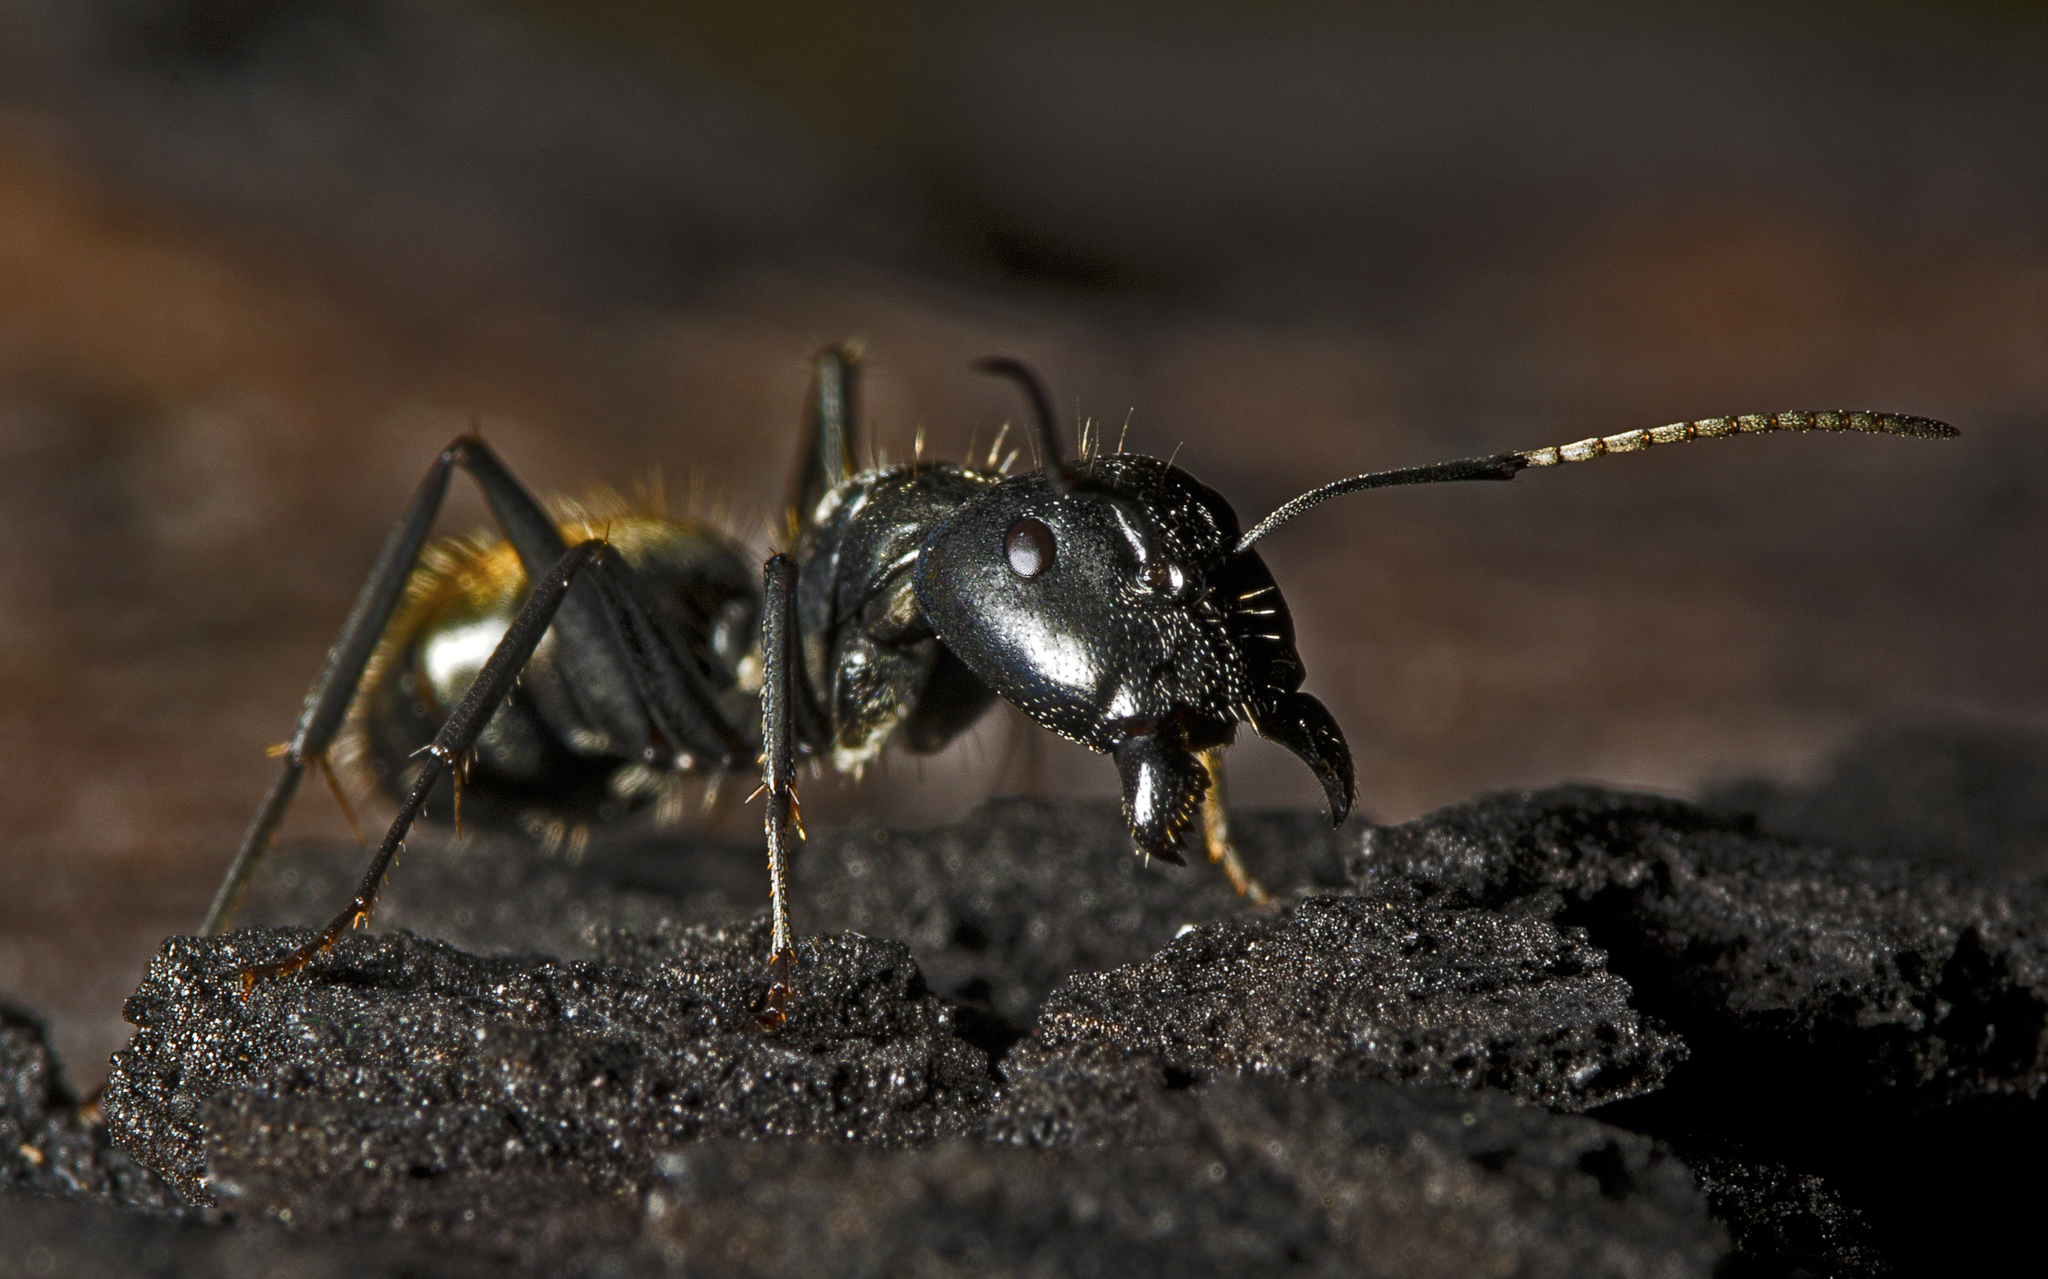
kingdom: Animalia
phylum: Arthropoda
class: Insecta
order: Hymenoptera
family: Formicidae
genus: Camponotus
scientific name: Camponotus aeneopilosus
